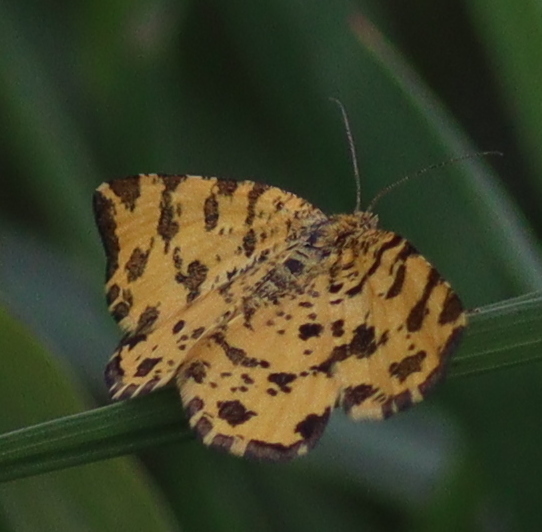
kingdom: Animalia
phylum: Arthropoda
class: Insecta
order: Lepidoptera
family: Geometridae
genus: Pseudopanthera
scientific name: Pseudopanthera macularia
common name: Speckled yellow
